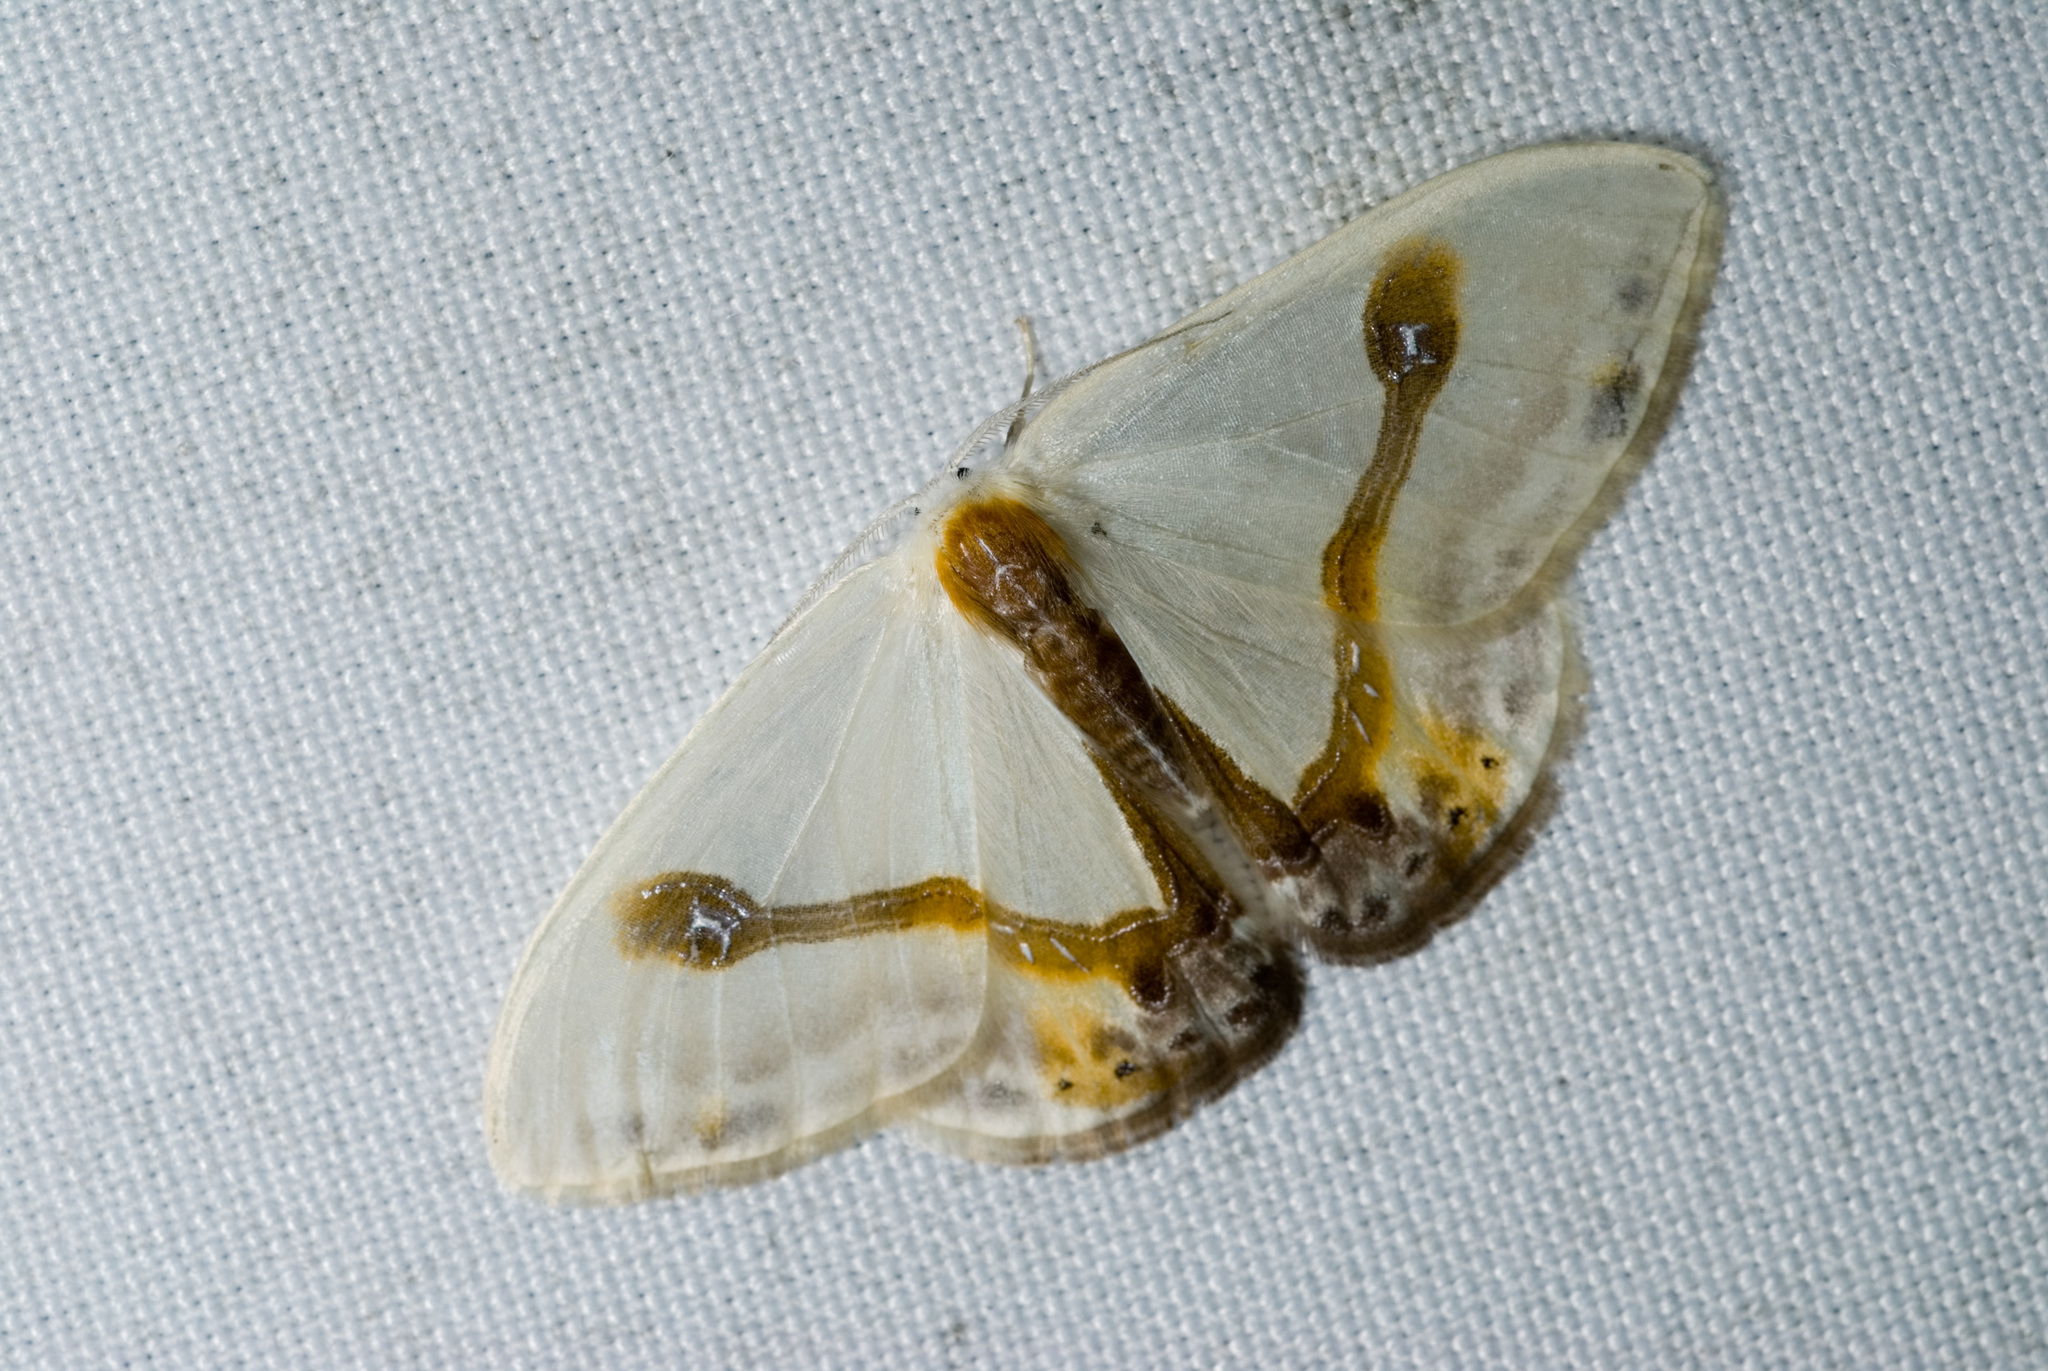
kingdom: Animalia
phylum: Arthropoda
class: Insecta
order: Lepidoptera
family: Drepanidae
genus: Macrocilix
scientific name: Macrocilix mysticata
